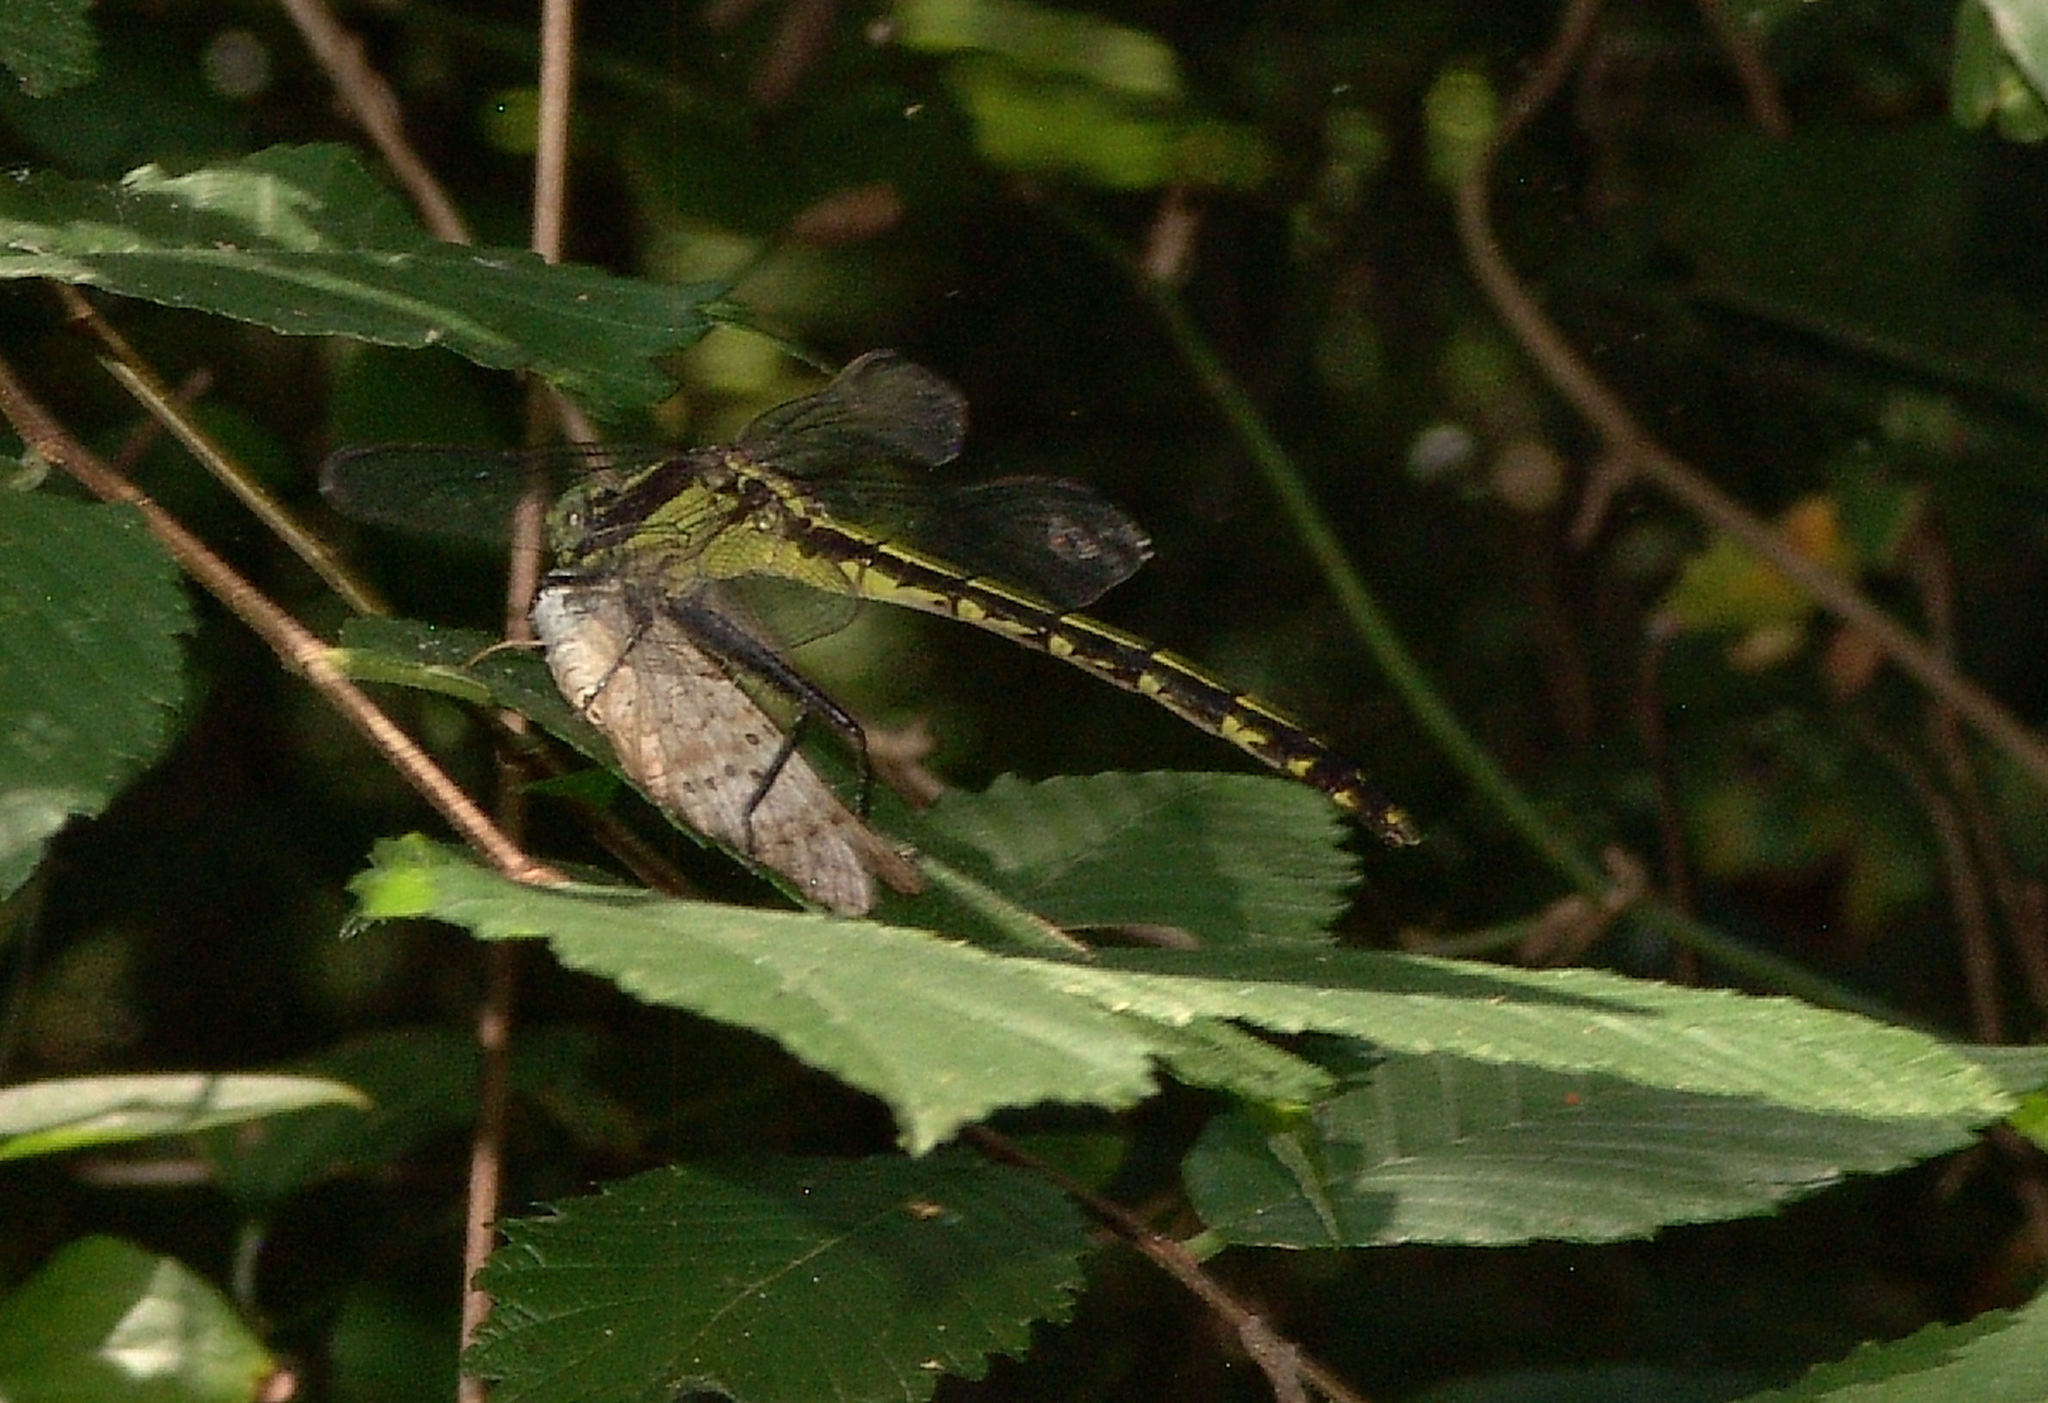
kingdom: Animalia
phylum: Arthropoda
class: Insecta
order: Odonata
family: Gomphidae
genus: Dromogomphus
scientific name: Dromogomphus spinosus
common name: Black-shouldered spinyleg
